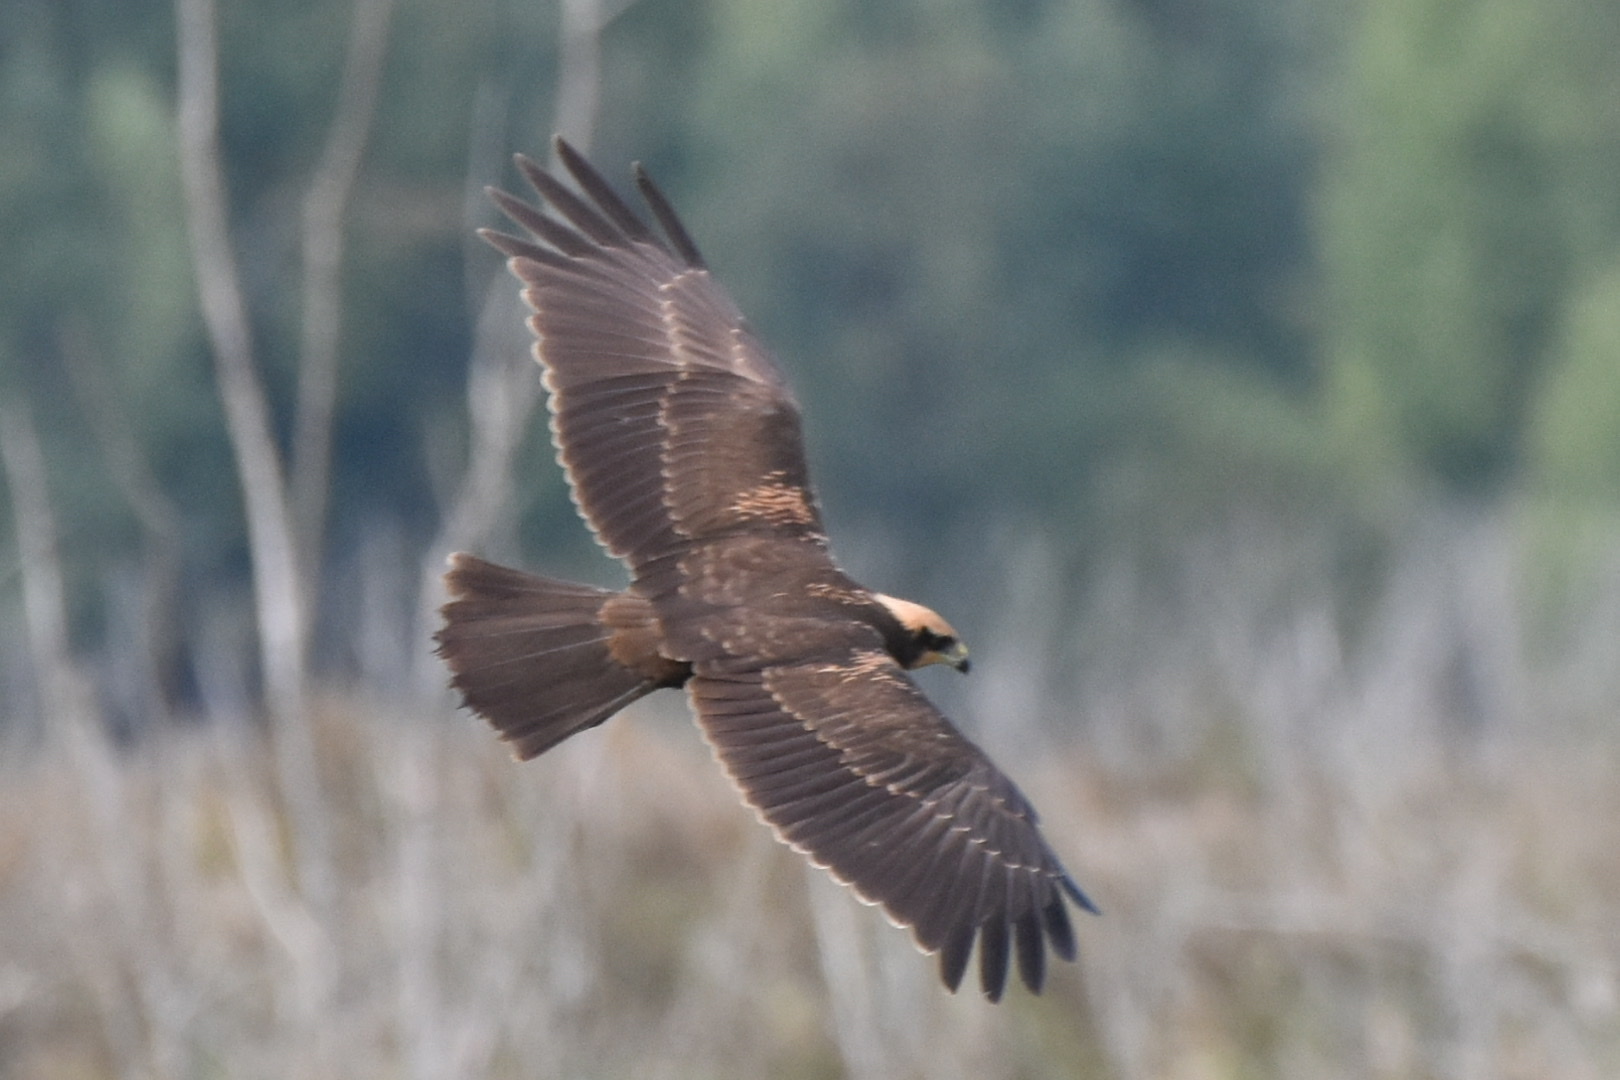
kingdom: Animalia
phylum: Chordata
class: Aves
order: Accipitriformes
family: Accipitridae
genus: Circus
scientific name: Circus aeruginosus
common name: Western marsh harrier
